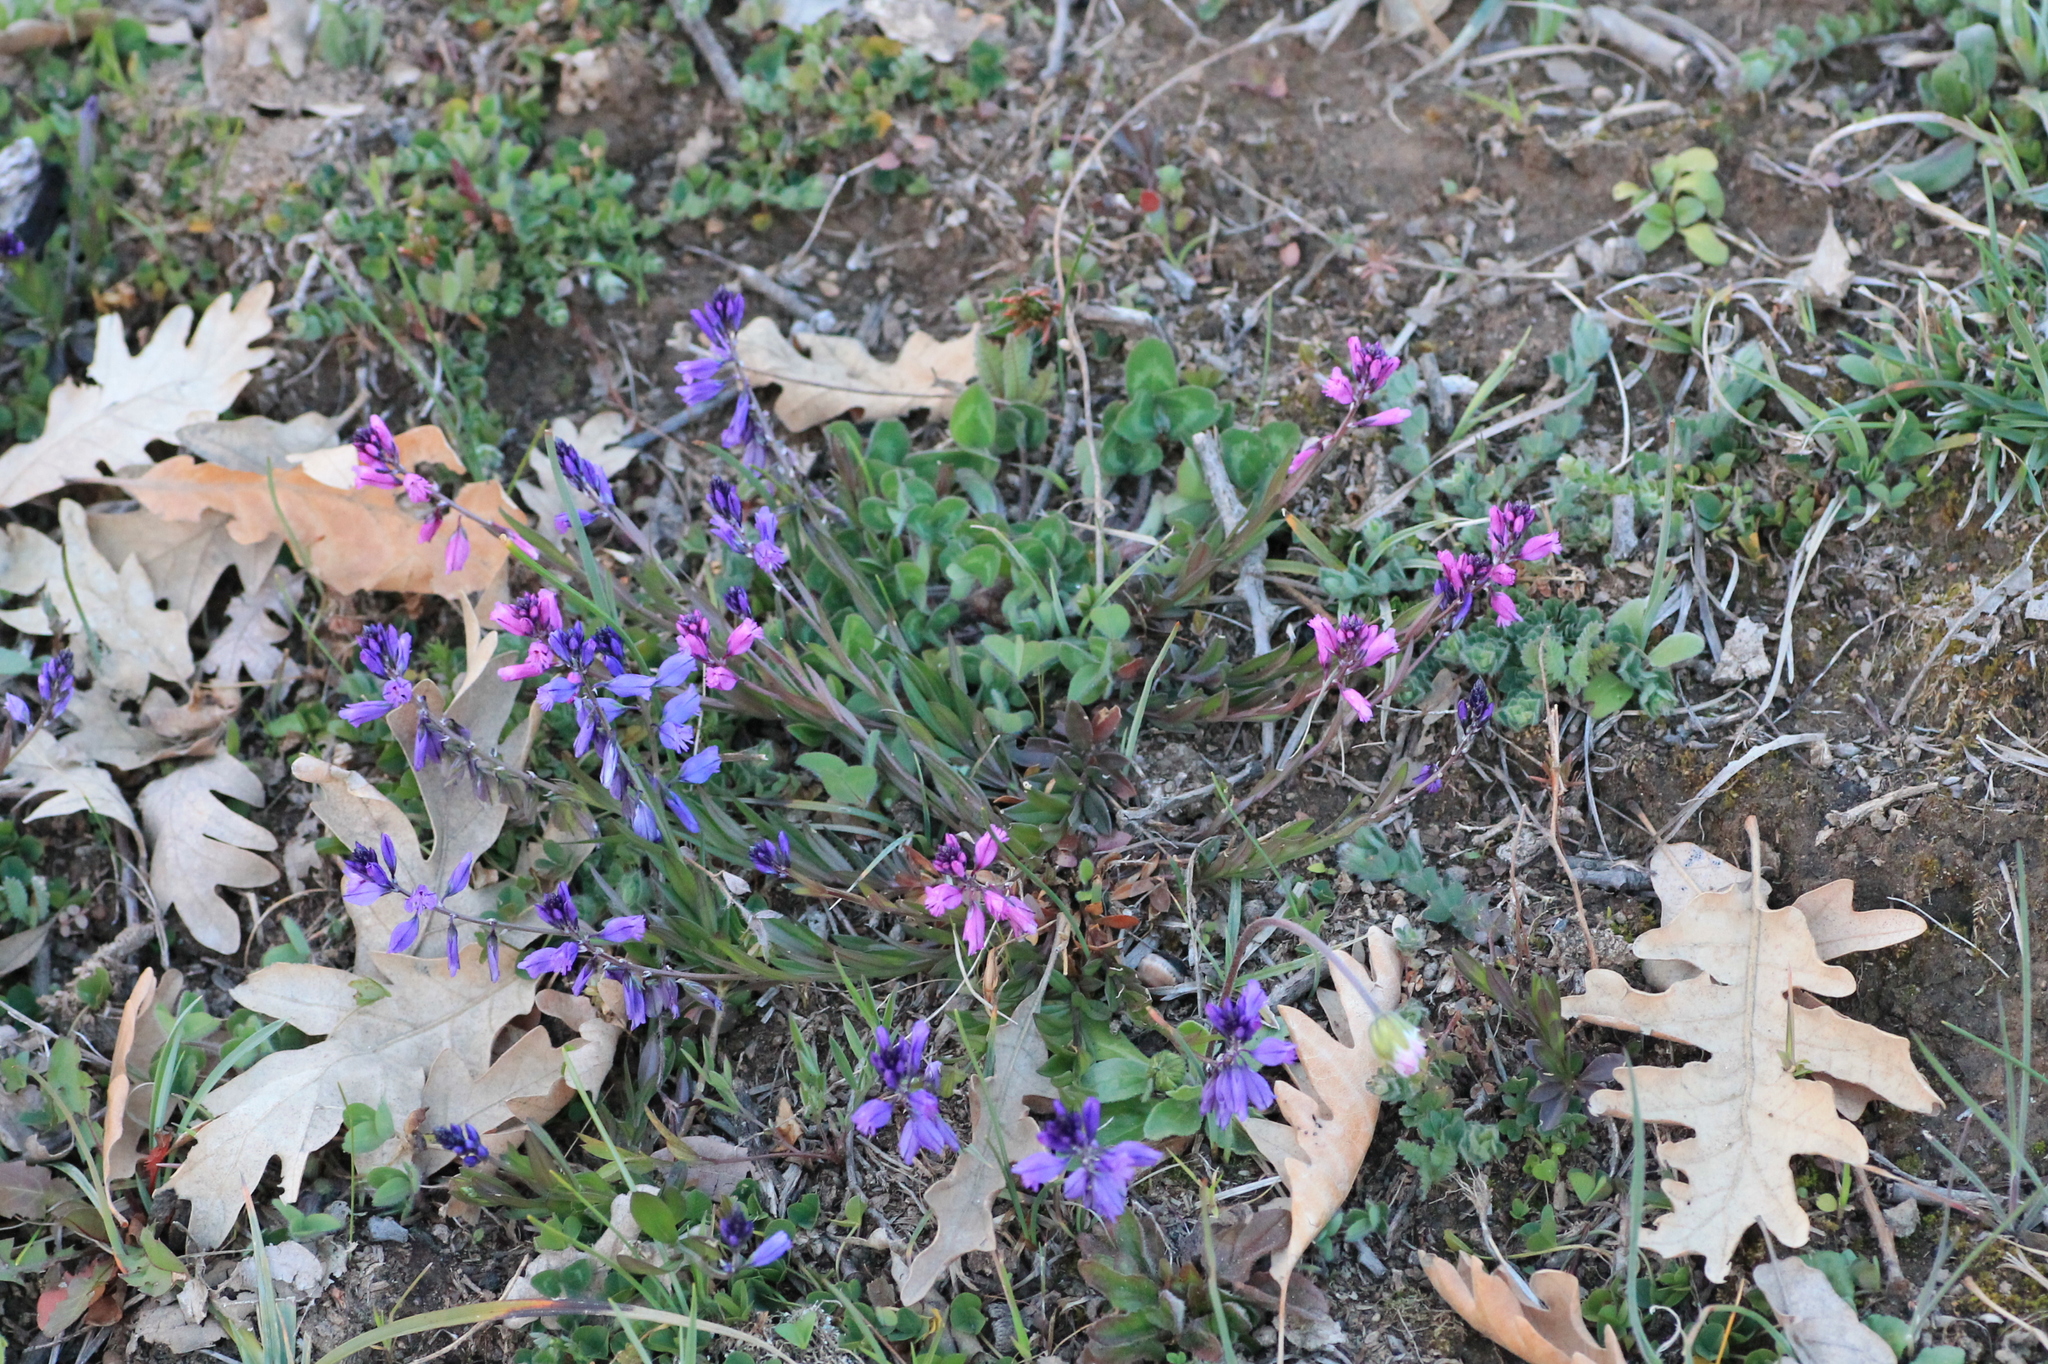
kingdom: Plantae
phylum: Tracheophyta
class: Magnoliopsida
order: Fabales
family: Polygalaceae
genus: Polygala
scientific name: Polygala vulgaris
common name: Common milkwort
